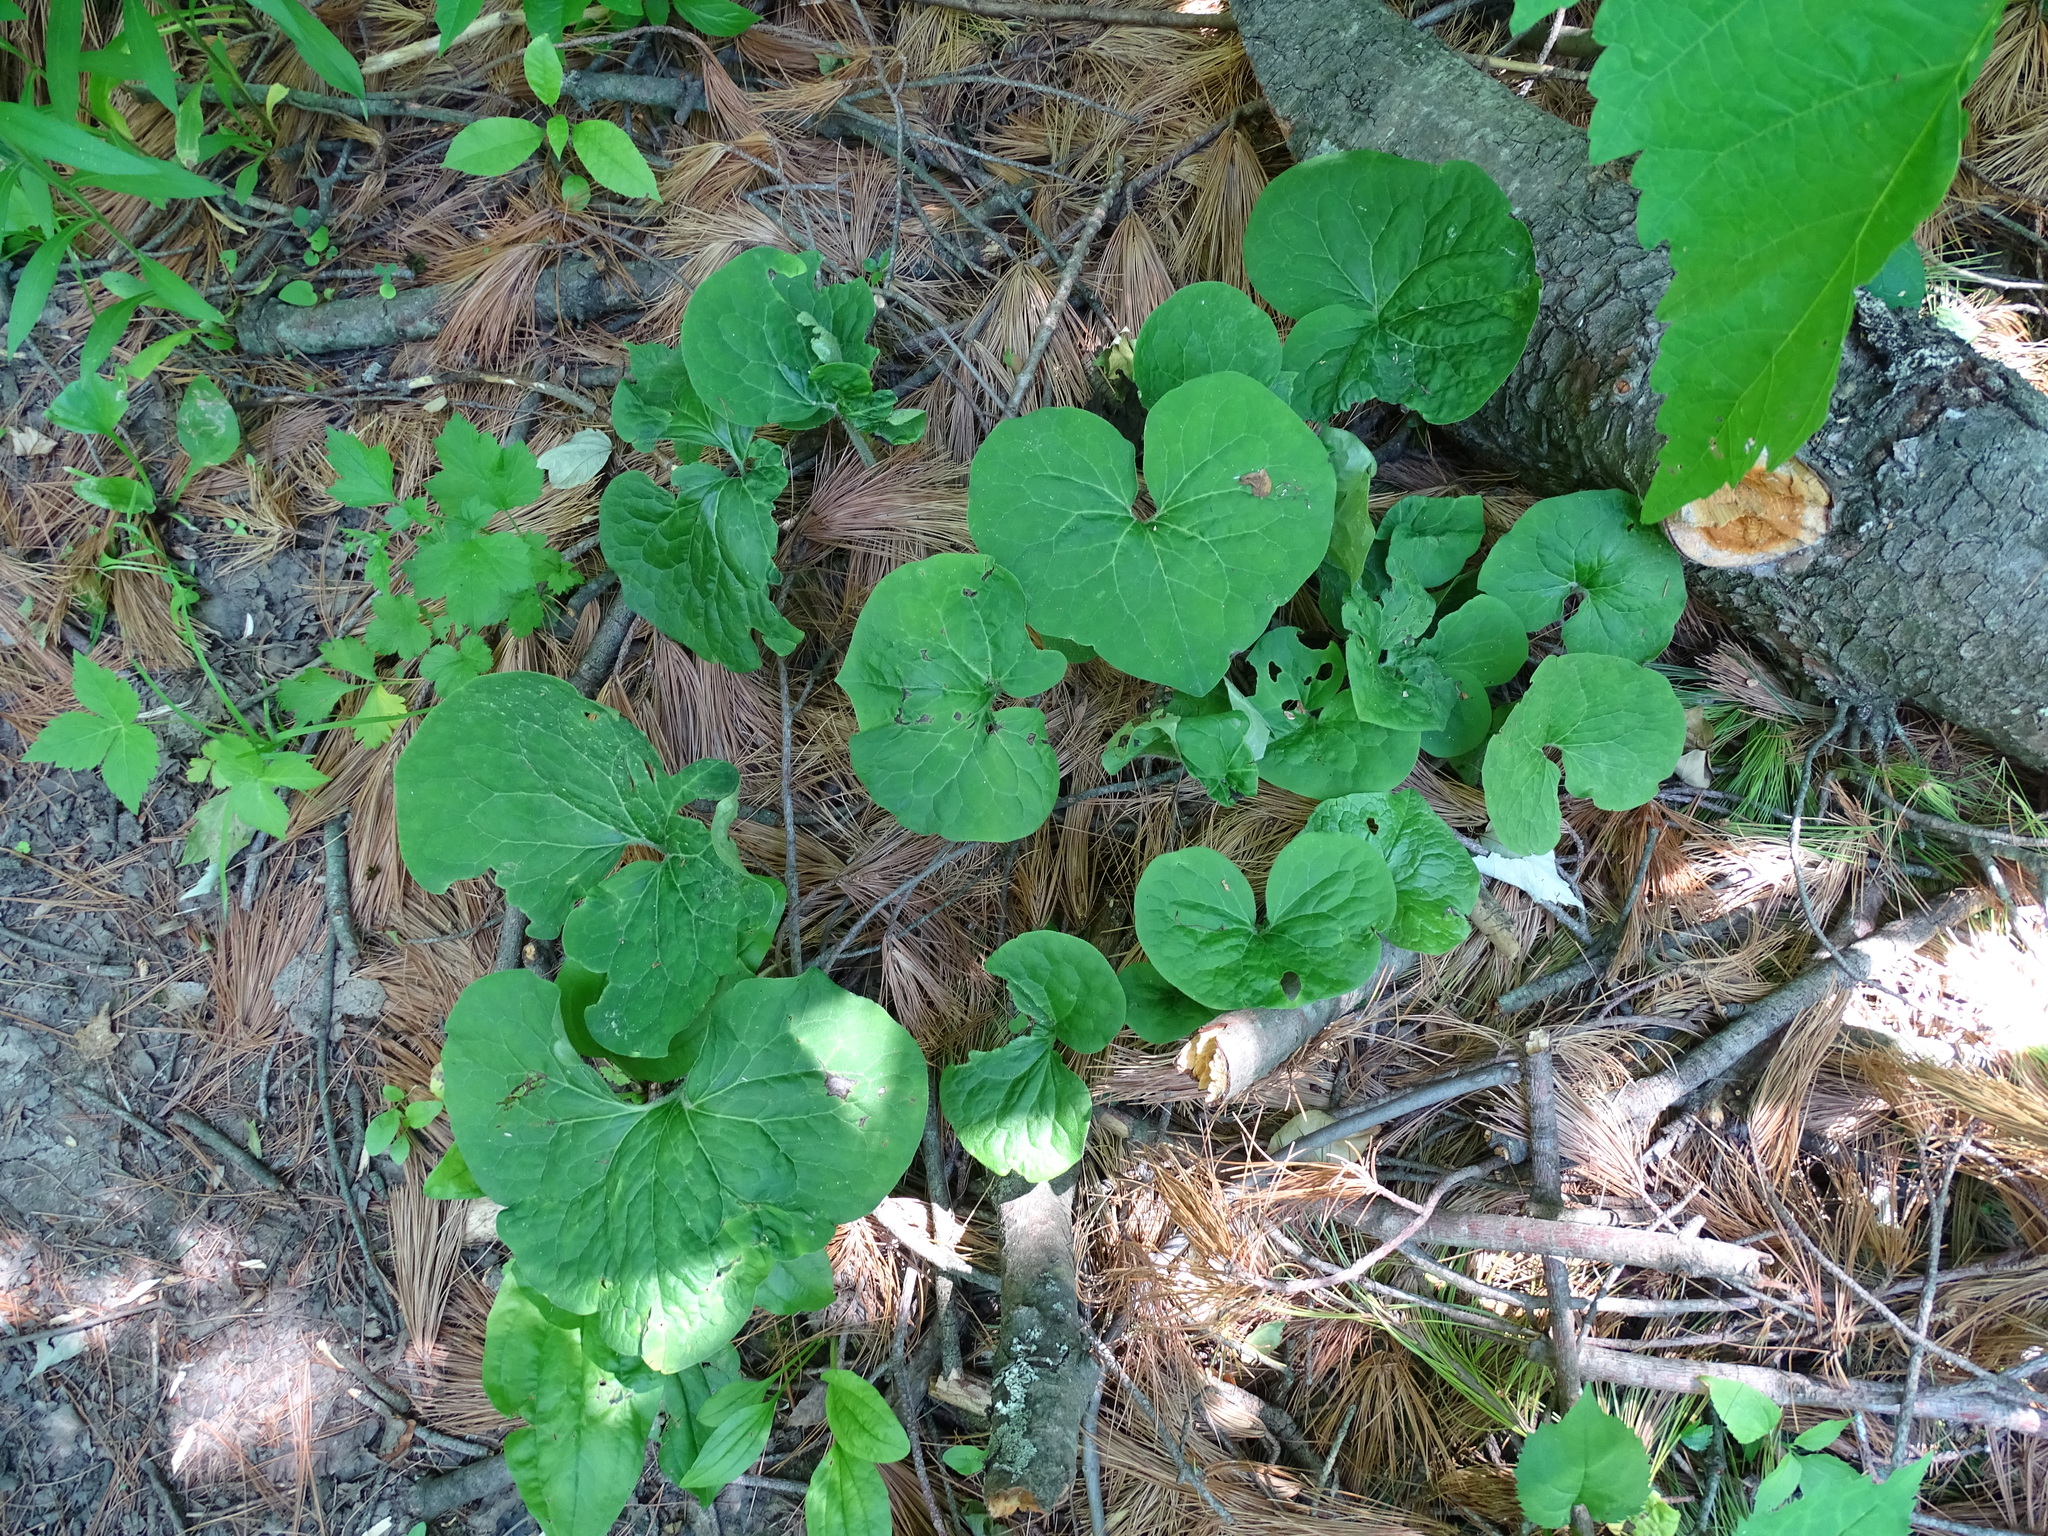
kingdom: Plantae
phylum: Tracheophyta
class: Magnoliopsida
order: Piperales
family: Aristolochiaceae
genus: Asarum
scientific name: Asarum canadense
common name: Wild ginger
